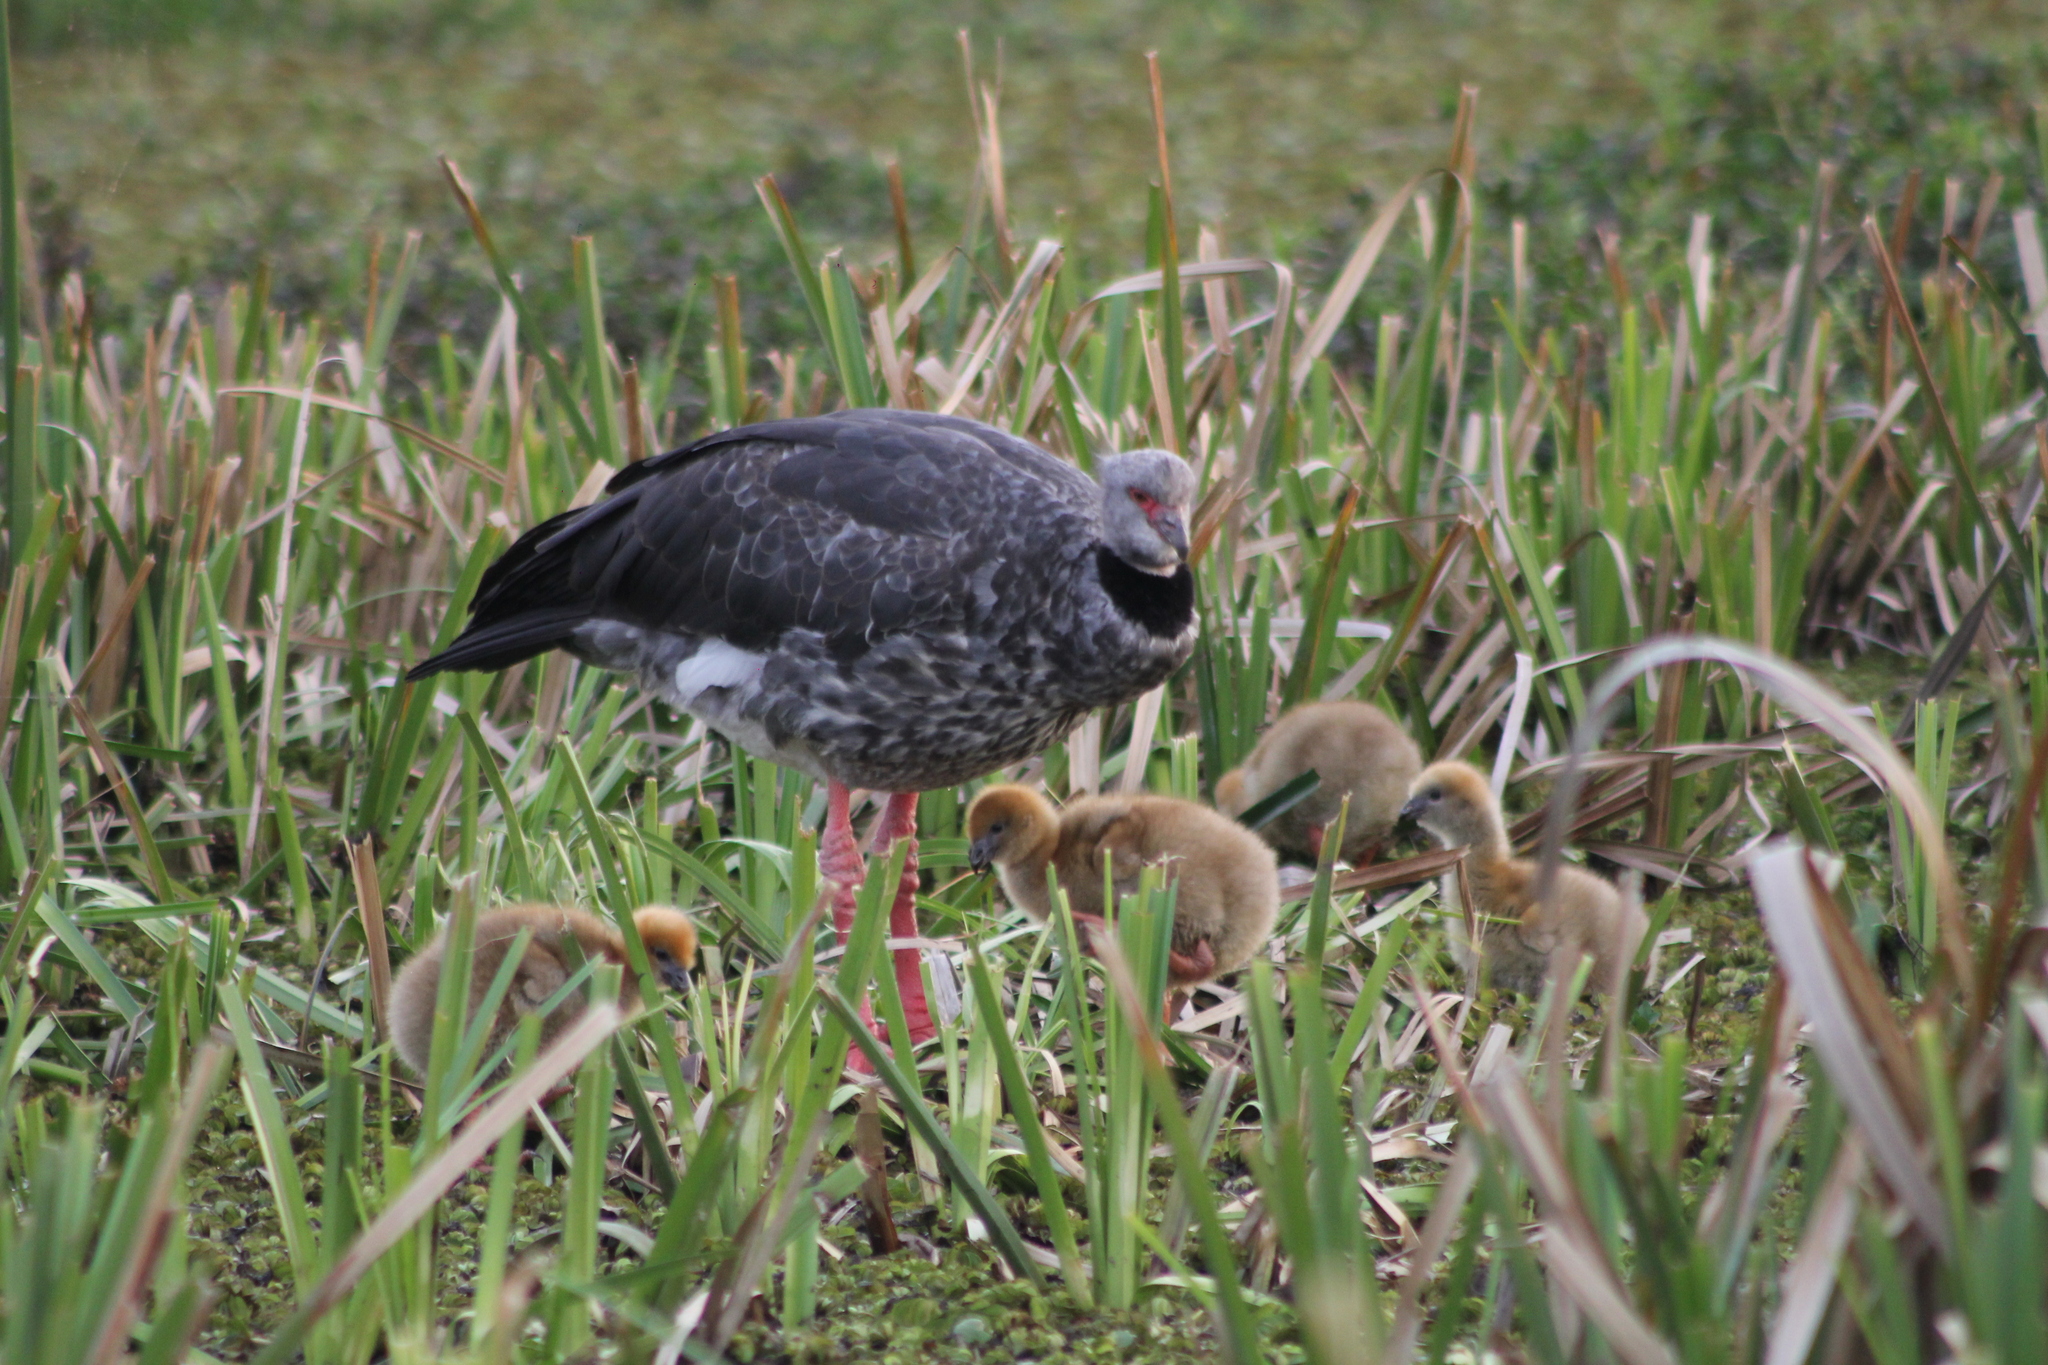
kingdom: Animalia
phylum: Chordata
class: Aves
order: Anseriformes
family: Anhimidae
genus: Chauna
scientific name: Chauna torquata
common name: Southern screamer
